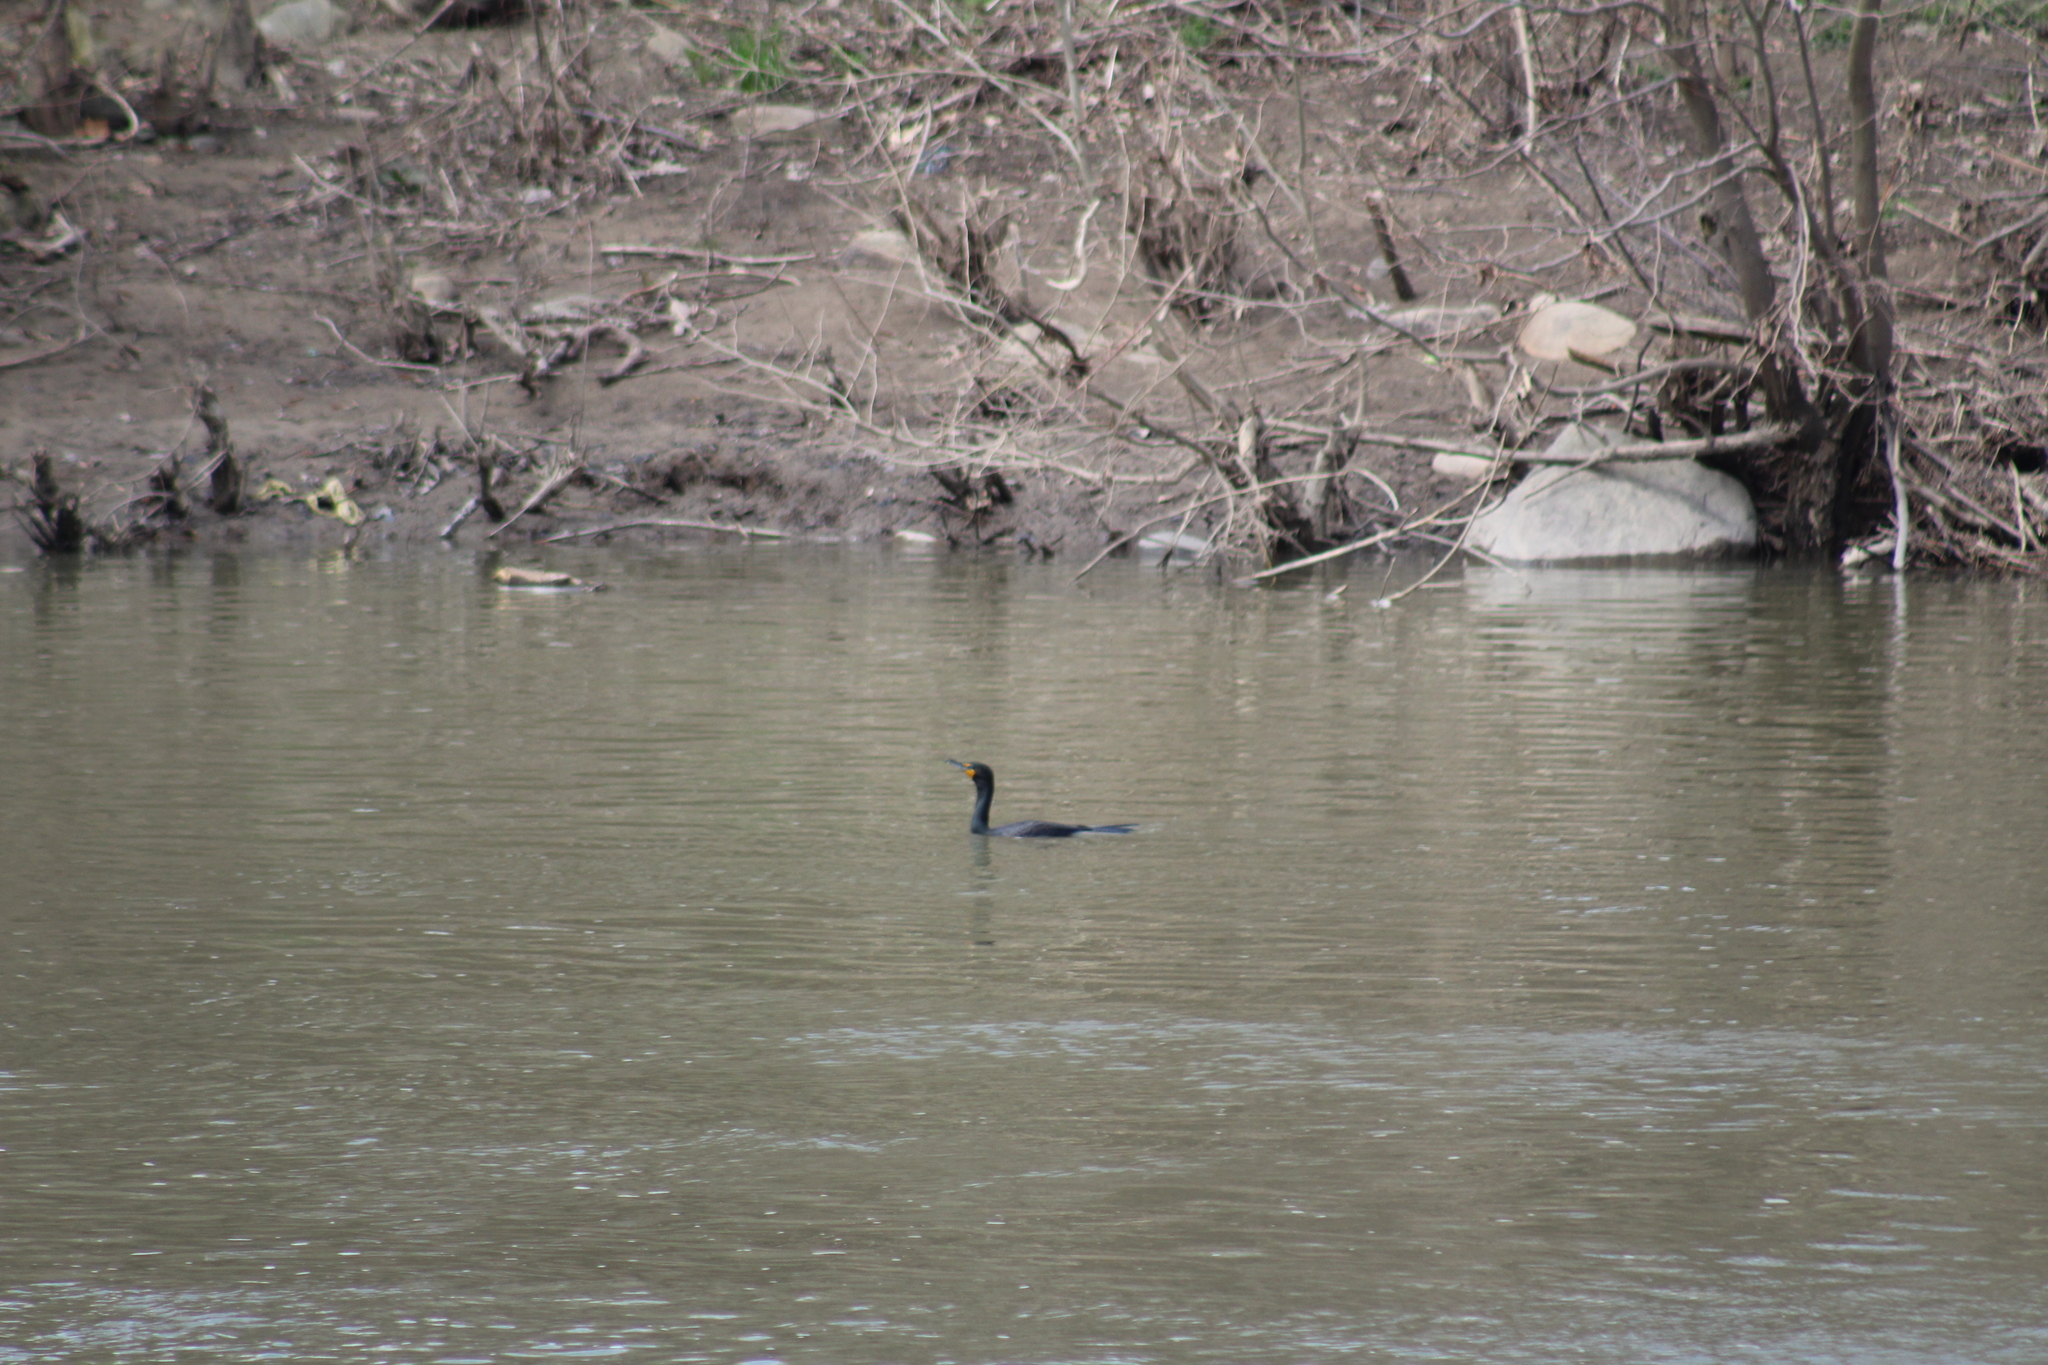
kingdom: Animalia
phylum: Chordata
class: Aves
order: Suliformes
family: Phalacrocoracidae
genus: Phalacrocorax
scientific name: Phalacrocorax auritus
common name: Double-crested cormorant
